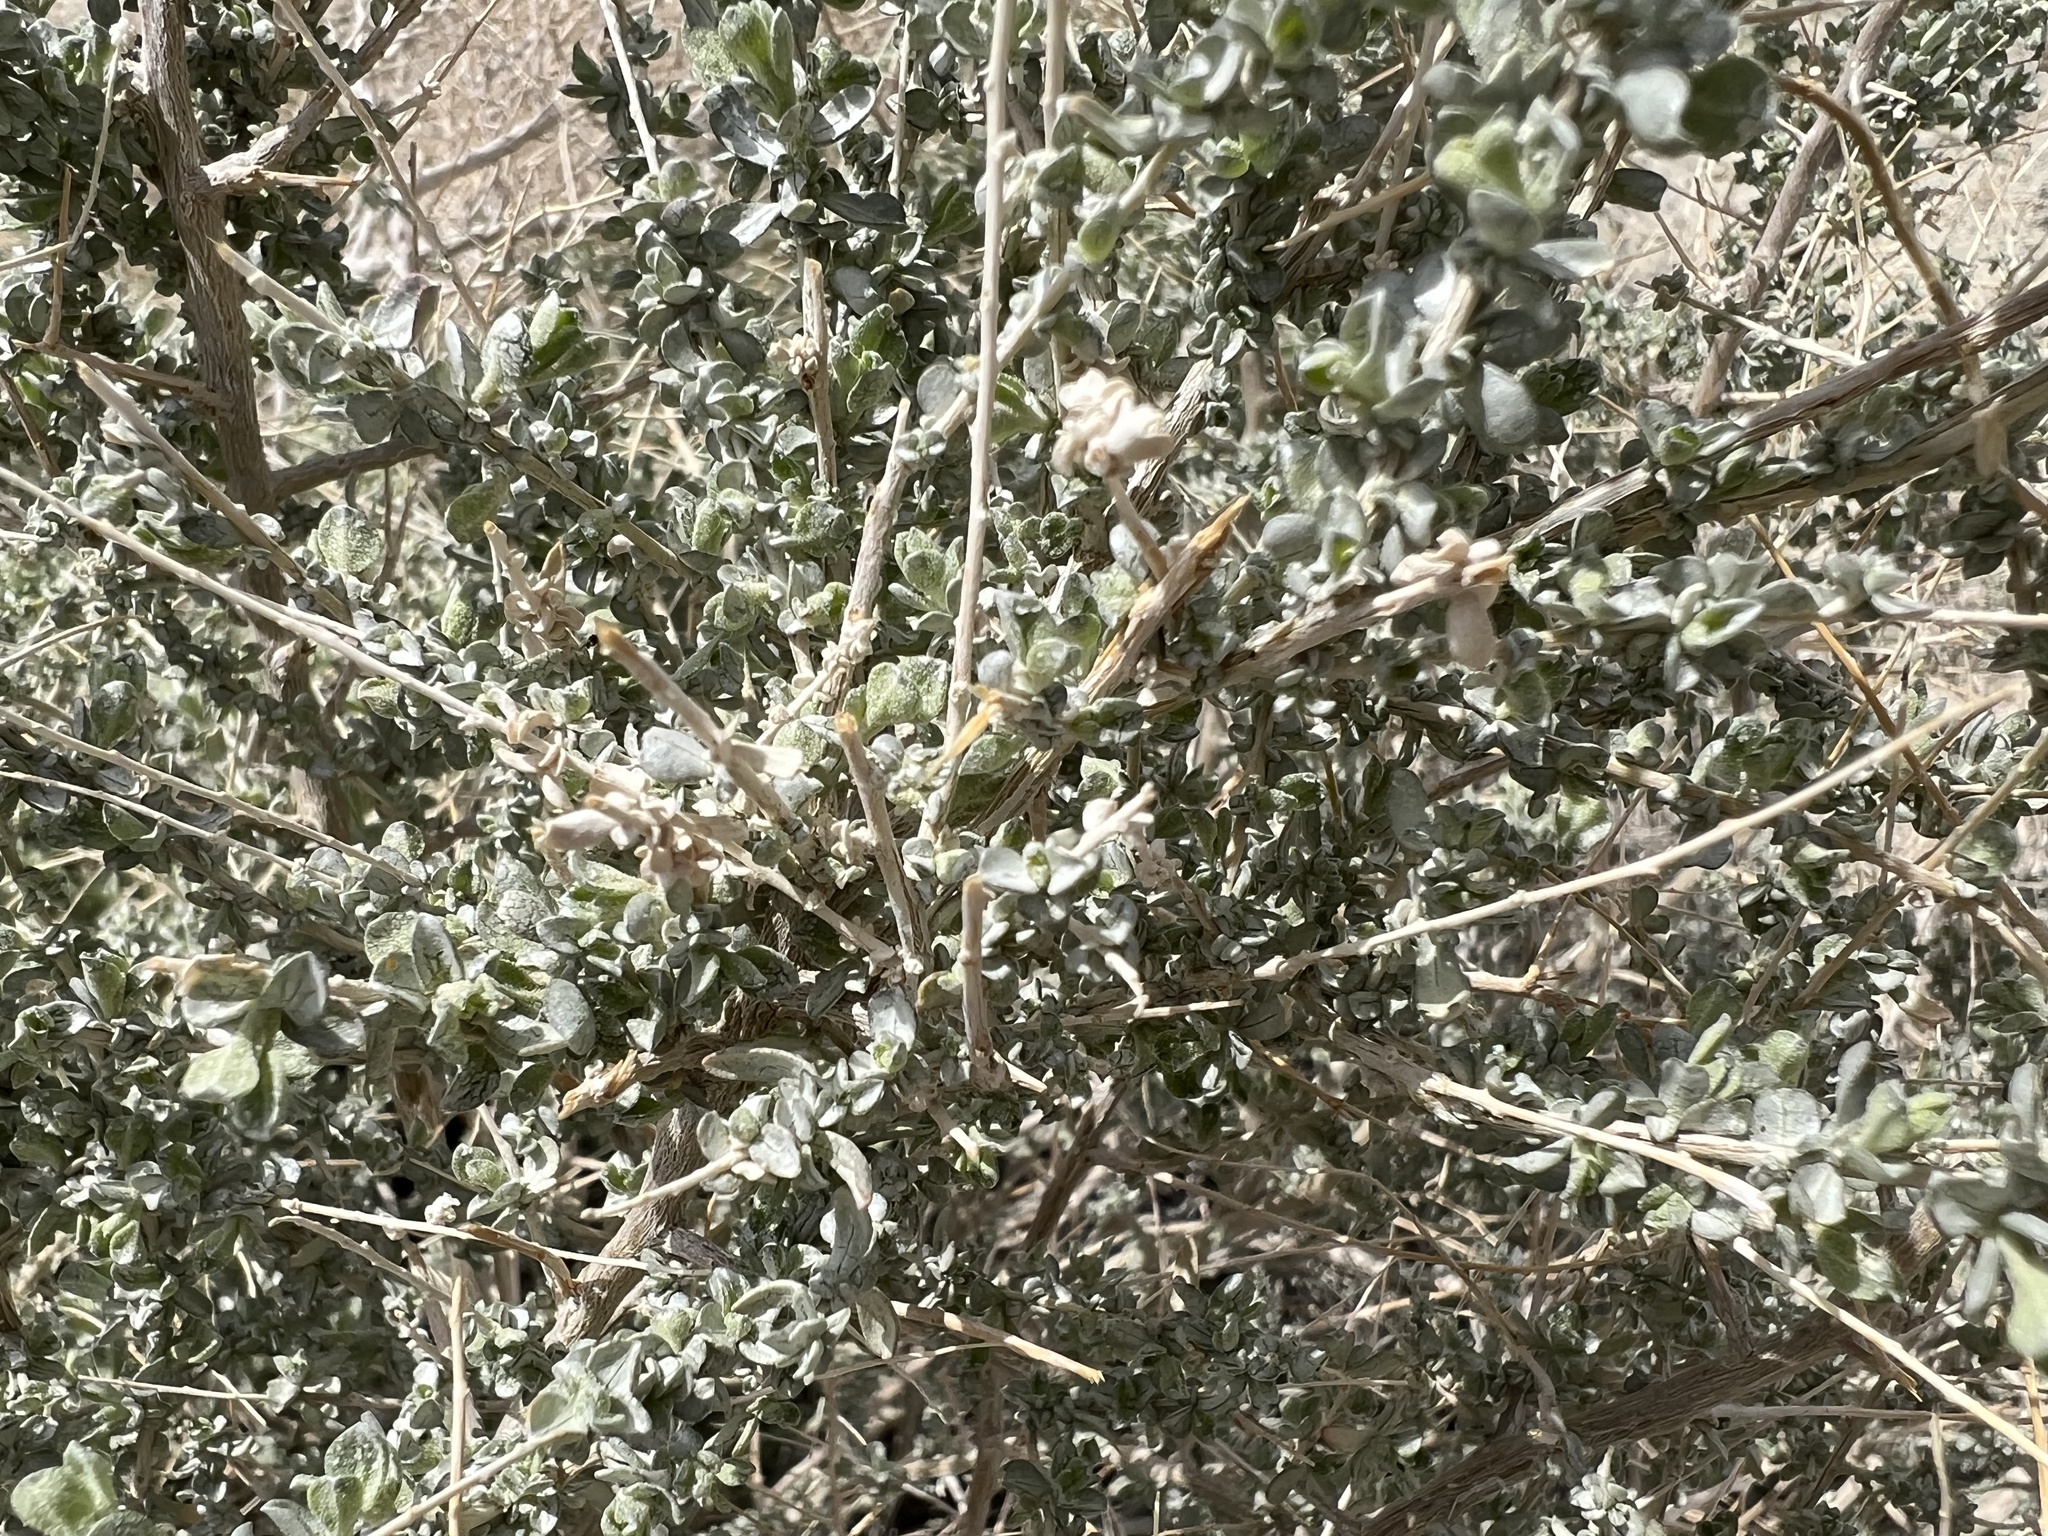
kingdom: Plantae
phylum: Tracheophyta
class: Magnoliopsida
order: Caryophyllales
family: Amaranthaceae
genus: Atriplex
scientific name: Atriplex polycarpa
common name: Desert saltbush
